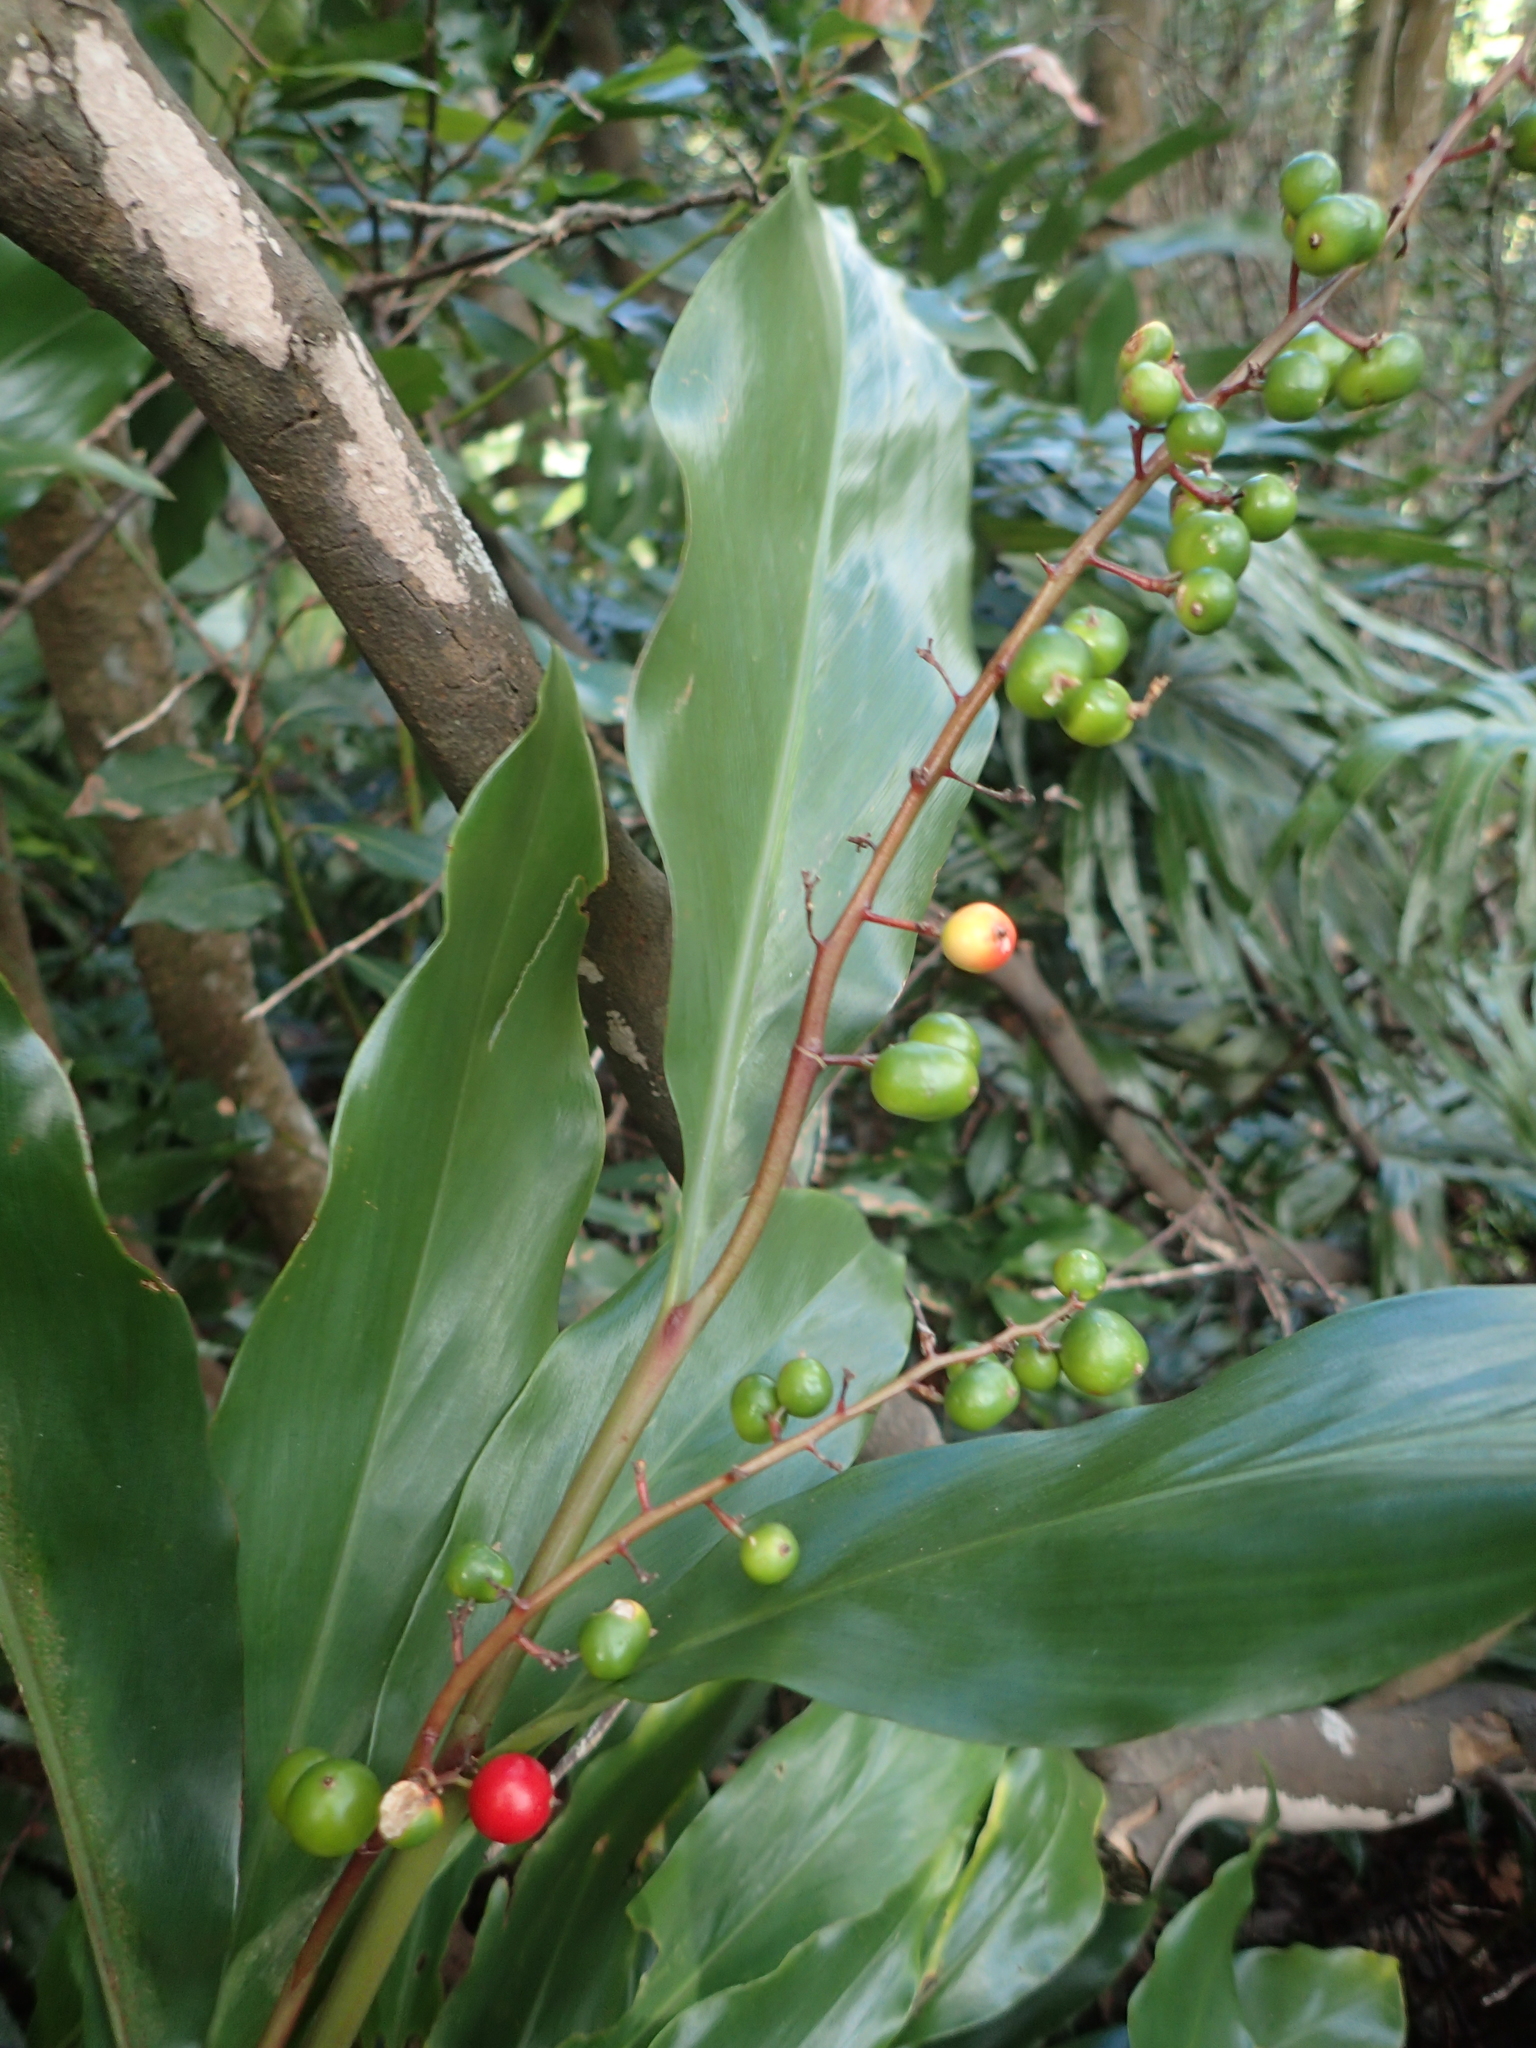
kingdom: Plantae
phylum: Tracheophyta
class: Liliopsida
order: Zingiberales
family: Zingiberaceae
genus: Alpinia
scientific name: Alpinia intermedia
